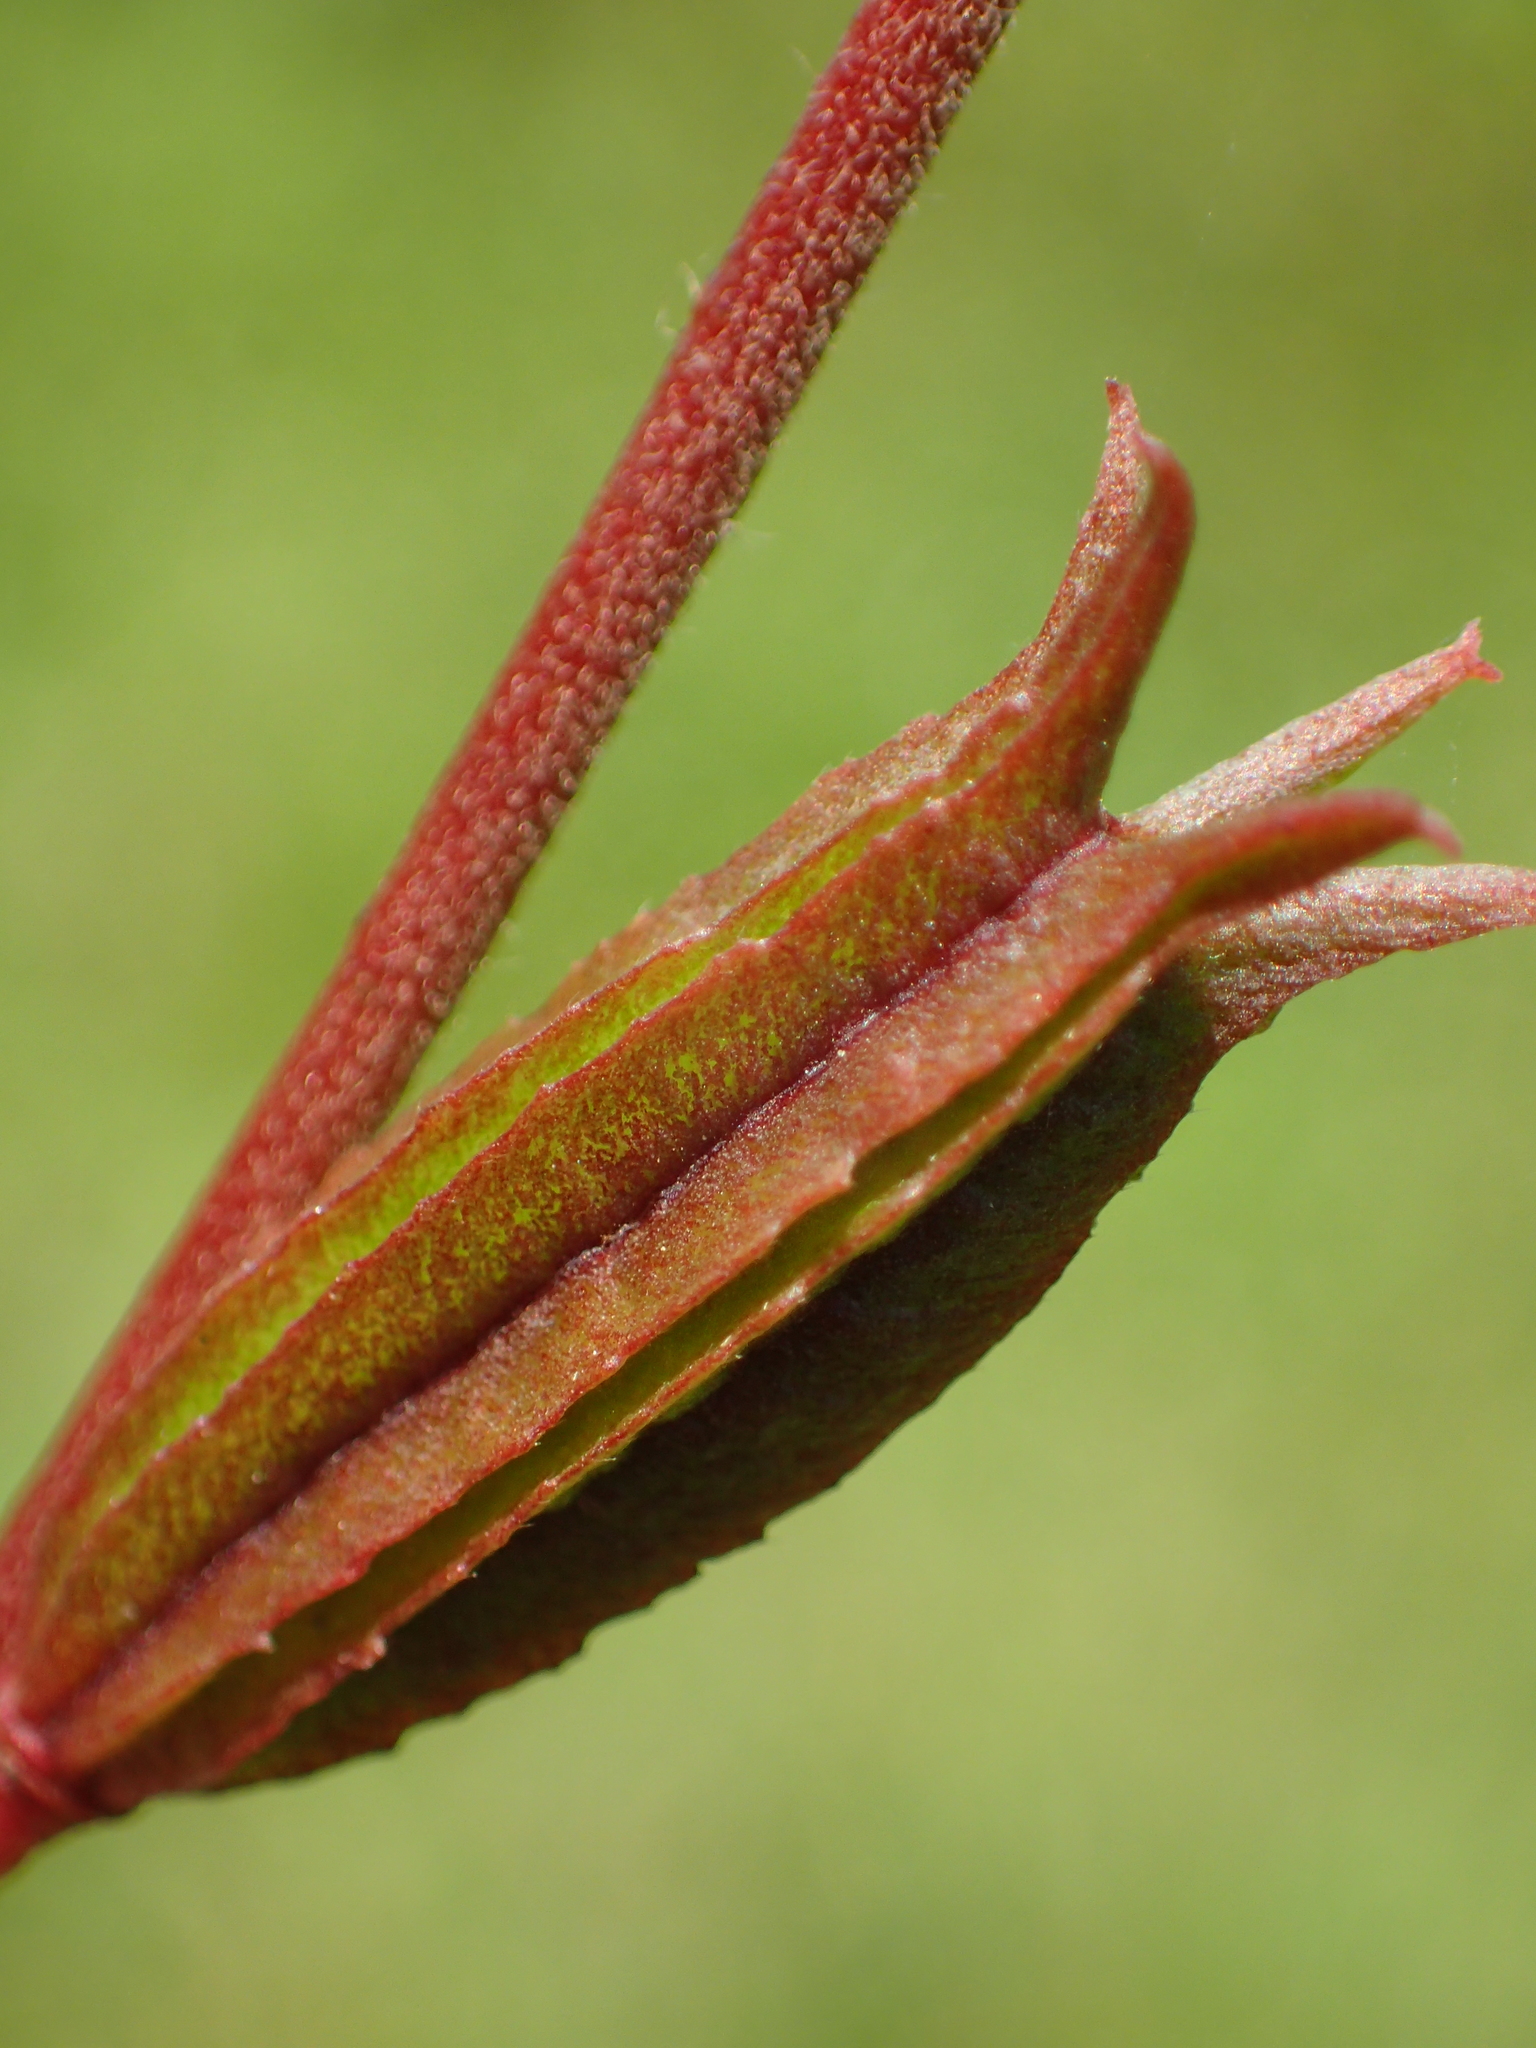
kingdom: Plantae
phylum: Tracheophyta
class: Magnoliopsida
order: Malvales
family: Malvaceae
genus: Corchorus
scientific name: Corchorus aestuans
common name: Jute
